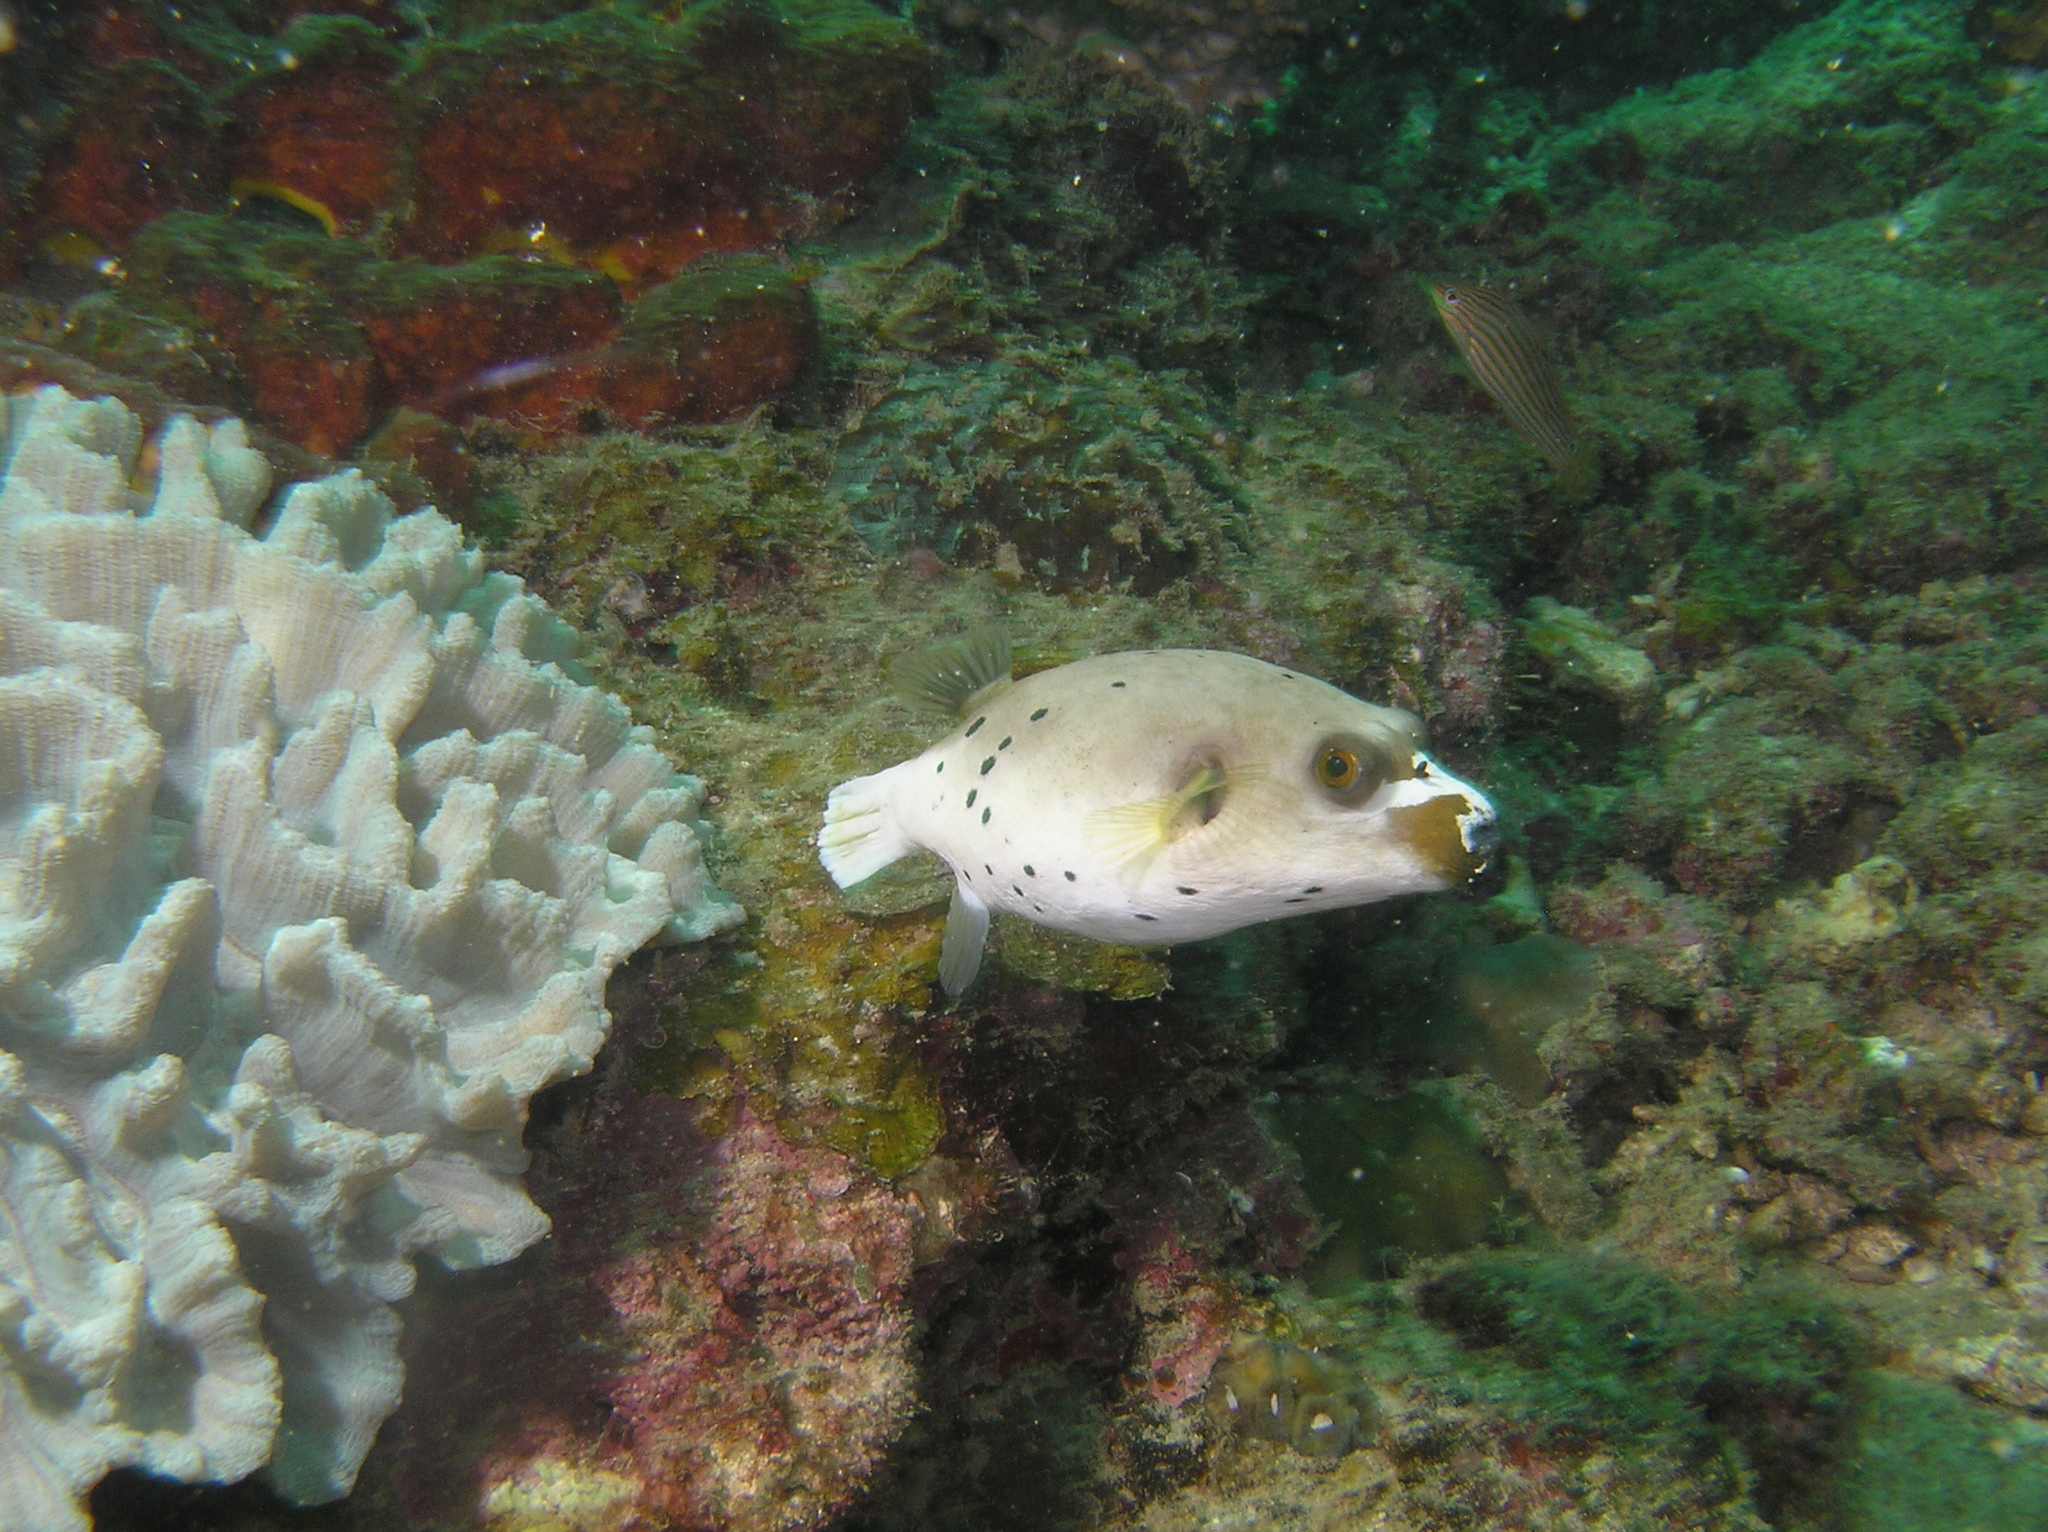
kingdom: Animalia
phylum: Chordata
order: Tetraodontiformes
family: Tetraodontidae
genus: Arothron
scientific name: Arothron nigropunctatus
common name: Black spotted blow fish
